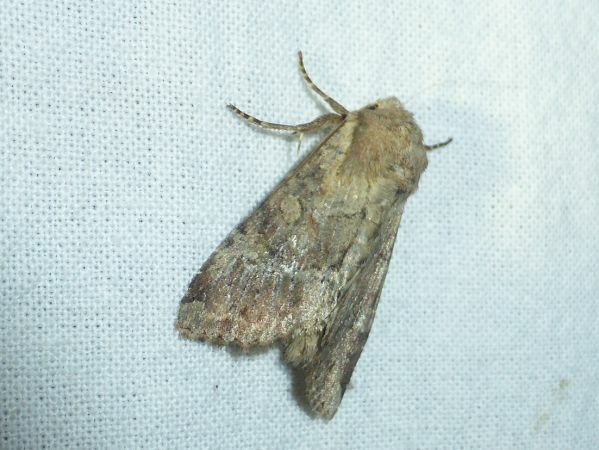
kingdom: Animalia
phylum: Arthropoda
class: Insecta
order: Lepidoptera
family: Noctuidae
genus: Apamea
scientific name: Apamea sordens
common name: Rustic shoulder-knot
